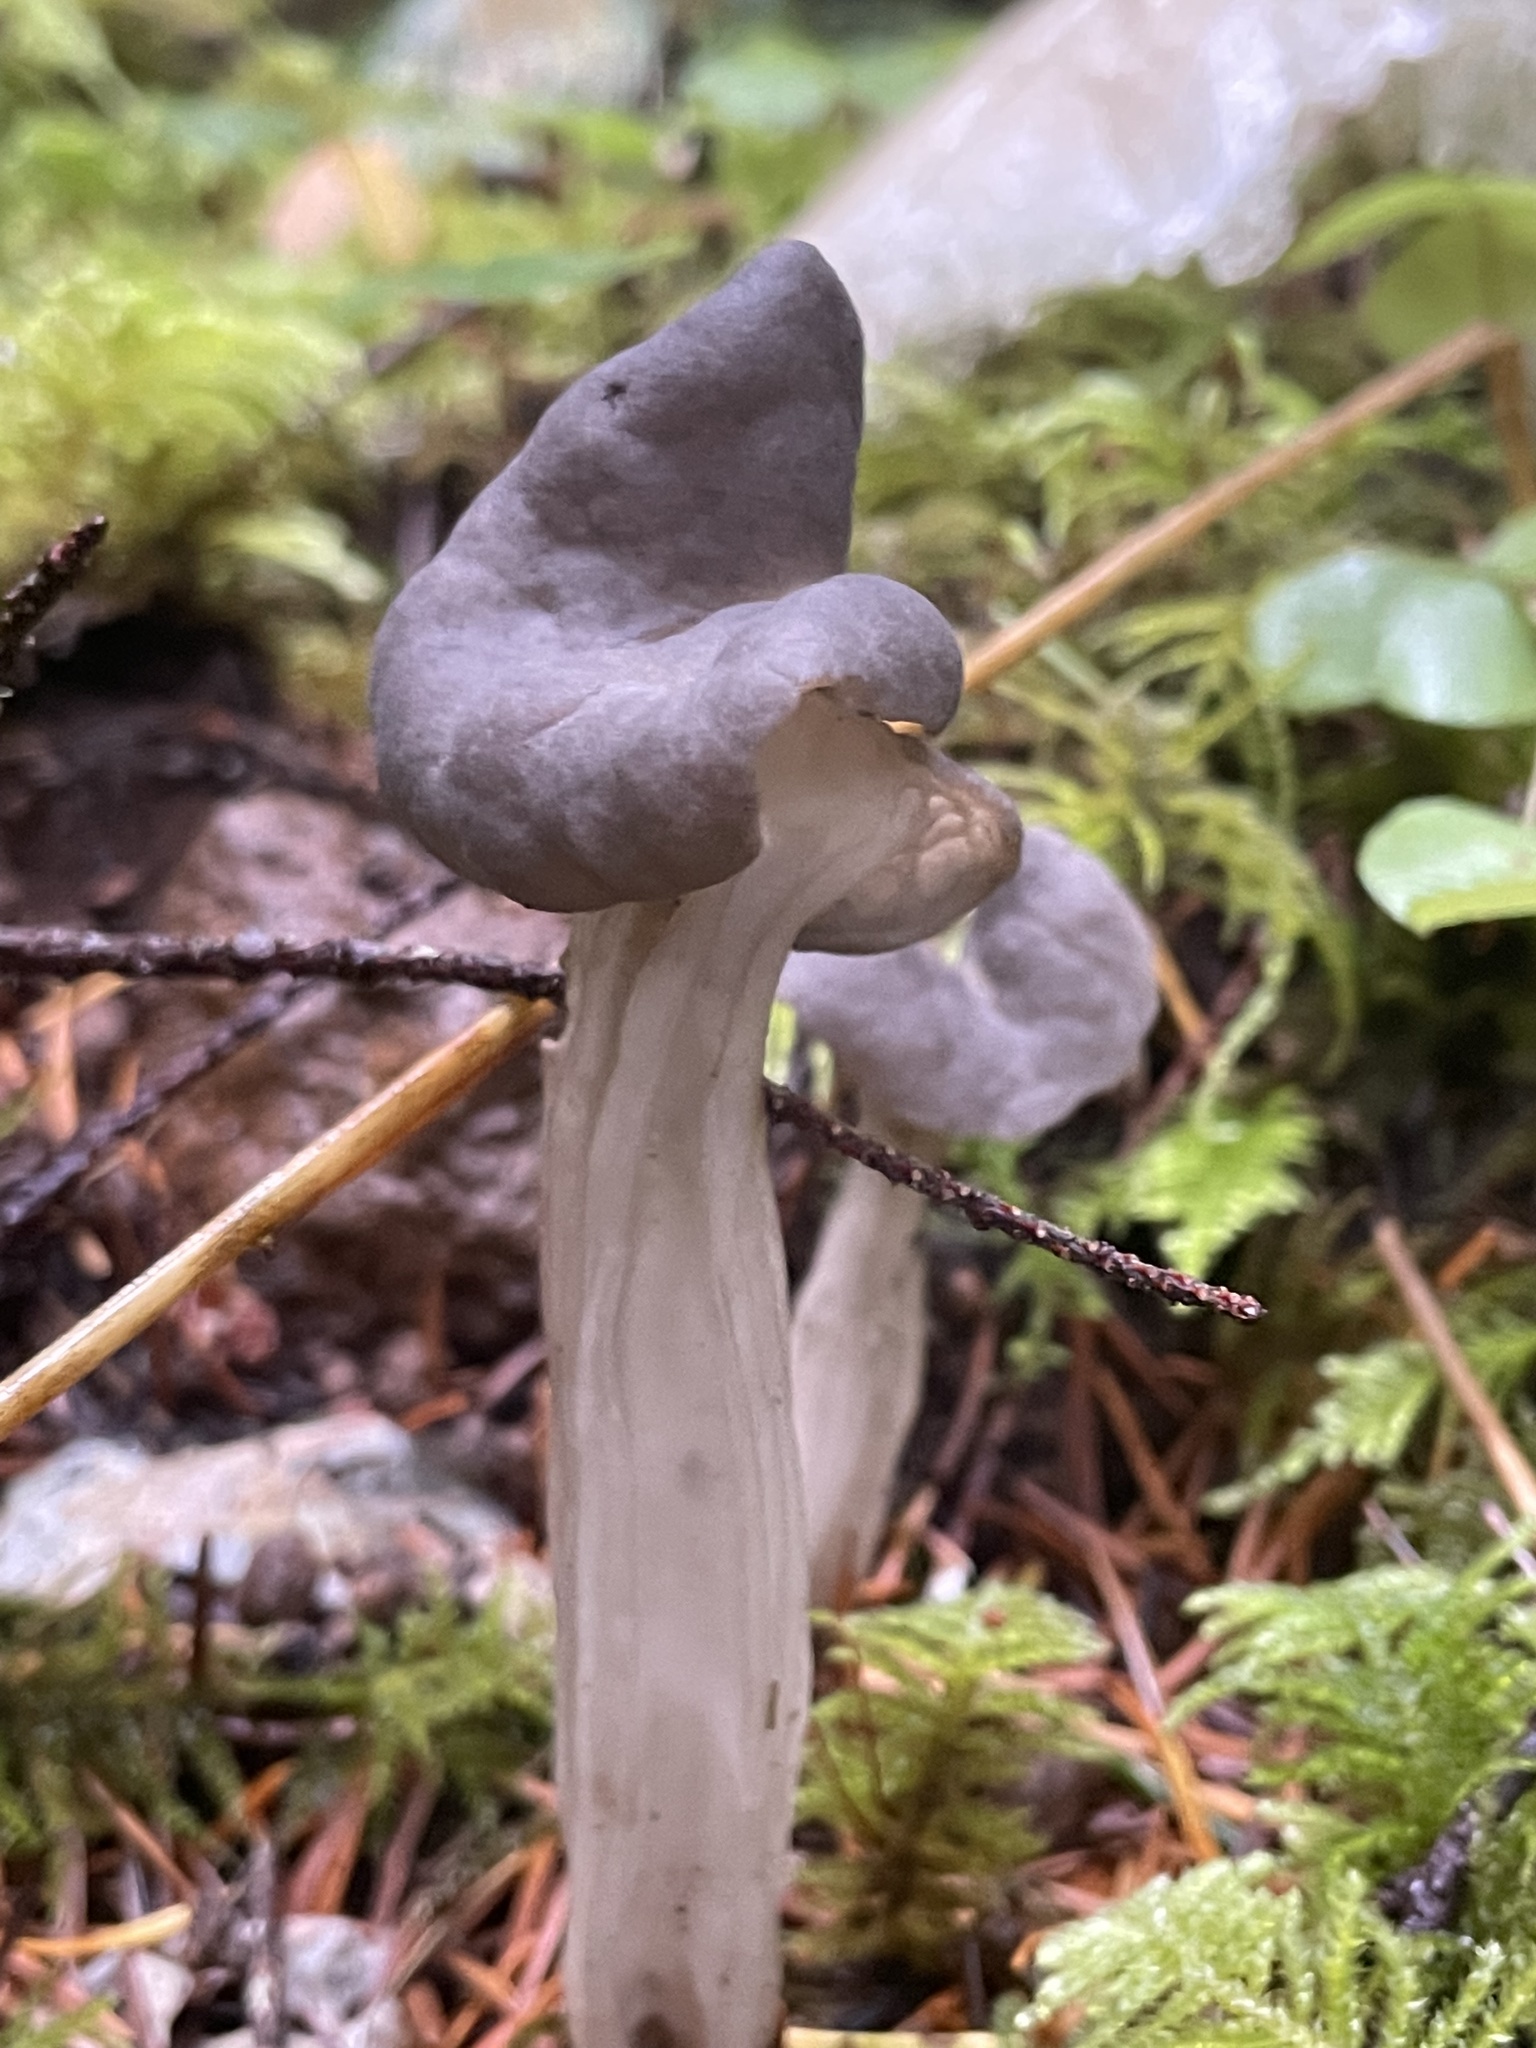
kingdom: Fungi
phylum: Ascomycota
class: Pezizomycetes
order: Pezizales
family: Helvellaceae
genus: Helvella
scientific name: Helvella vespertina
